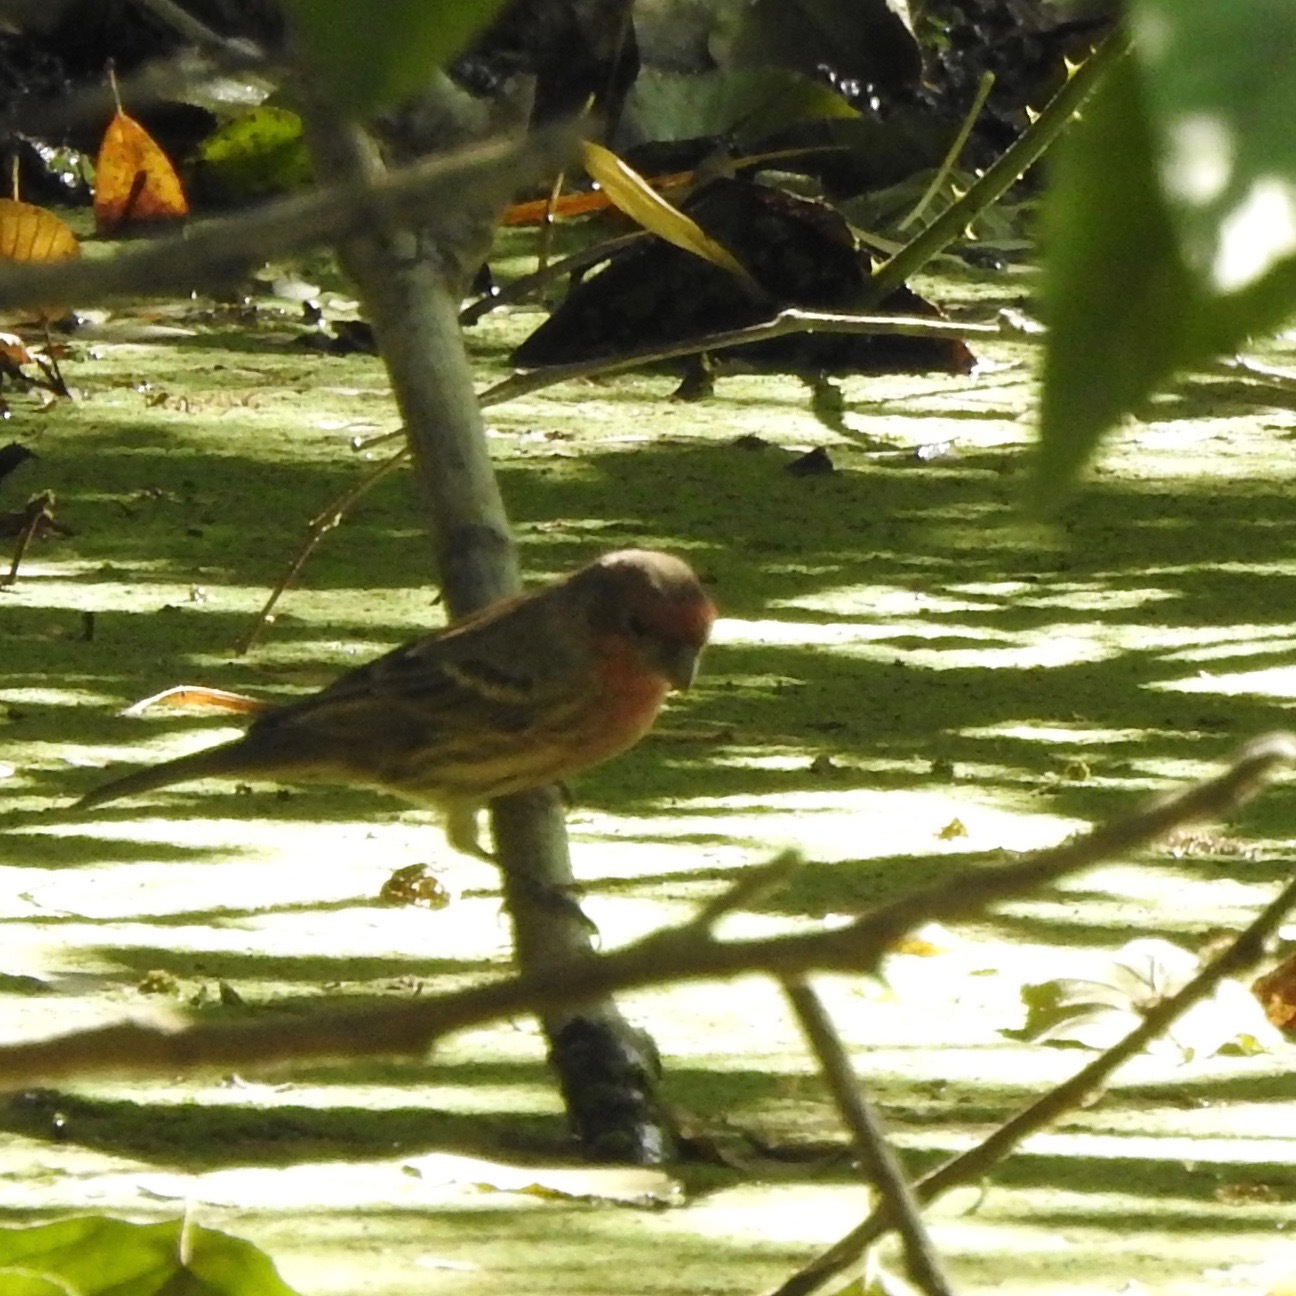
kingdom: Animalia
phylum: Chordata
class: Aves
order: Passeriformes
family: Fringillidae
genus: Haemorhous
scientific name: Haemorhous mexicanus
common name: House finch
